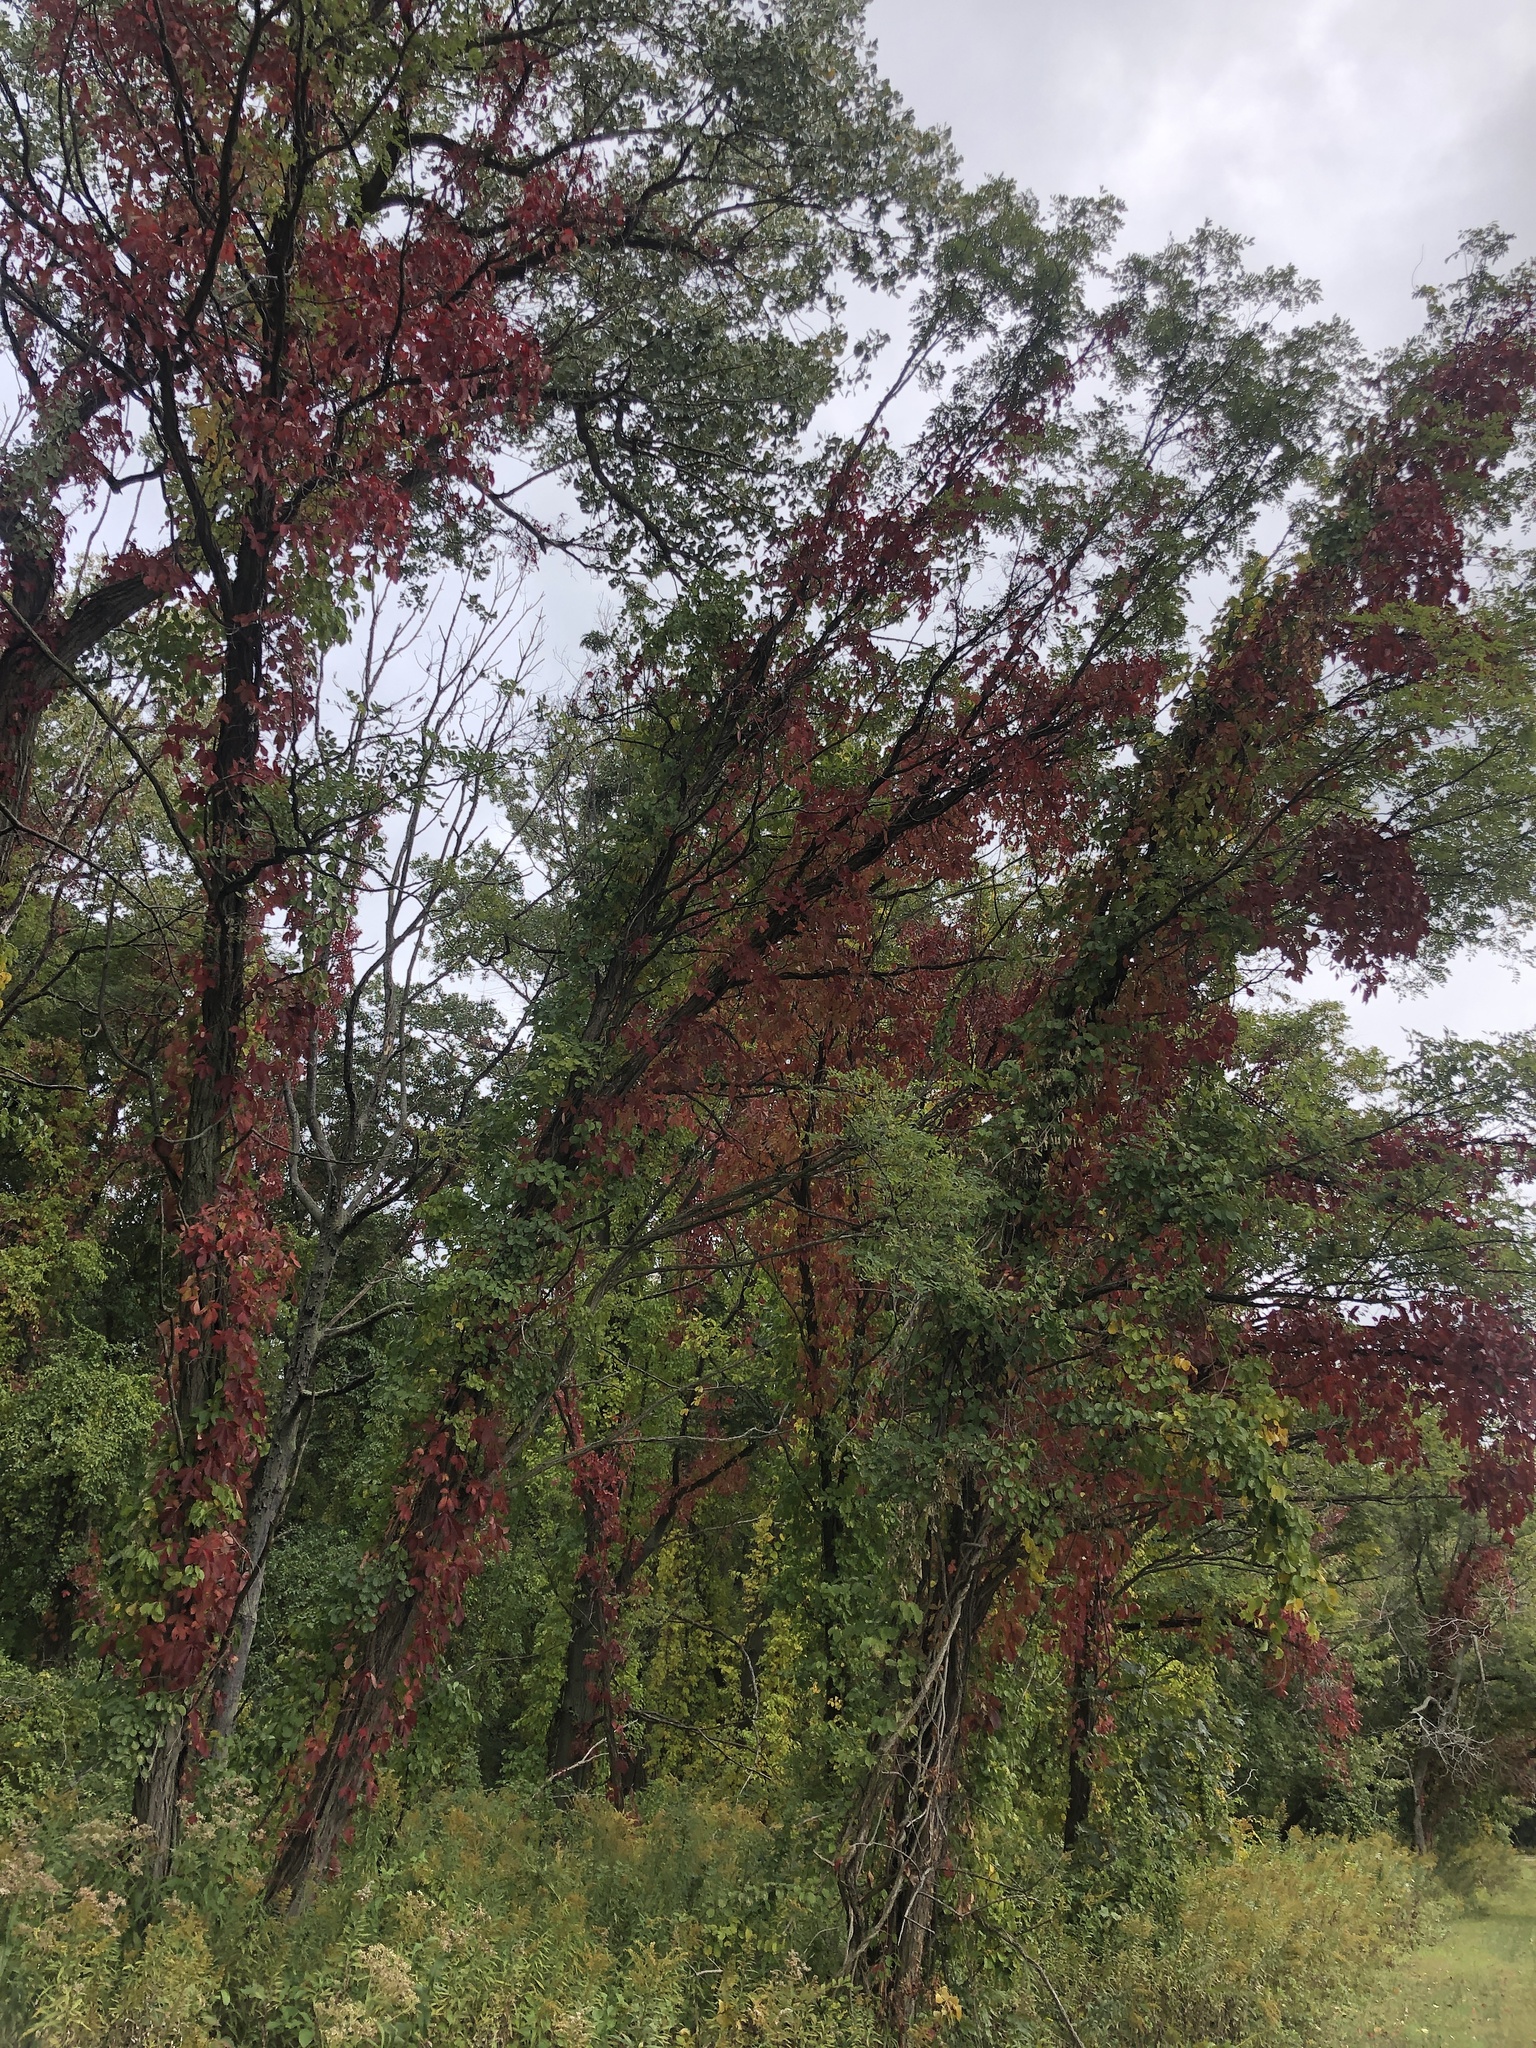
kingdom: Plantae
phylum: Tracheophyta
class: Magnoliopsida
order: Vitales
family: Vitaceae
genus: Parthenocissus
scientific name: Parthenocissus quinquefolia
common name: Virginia-creeper
